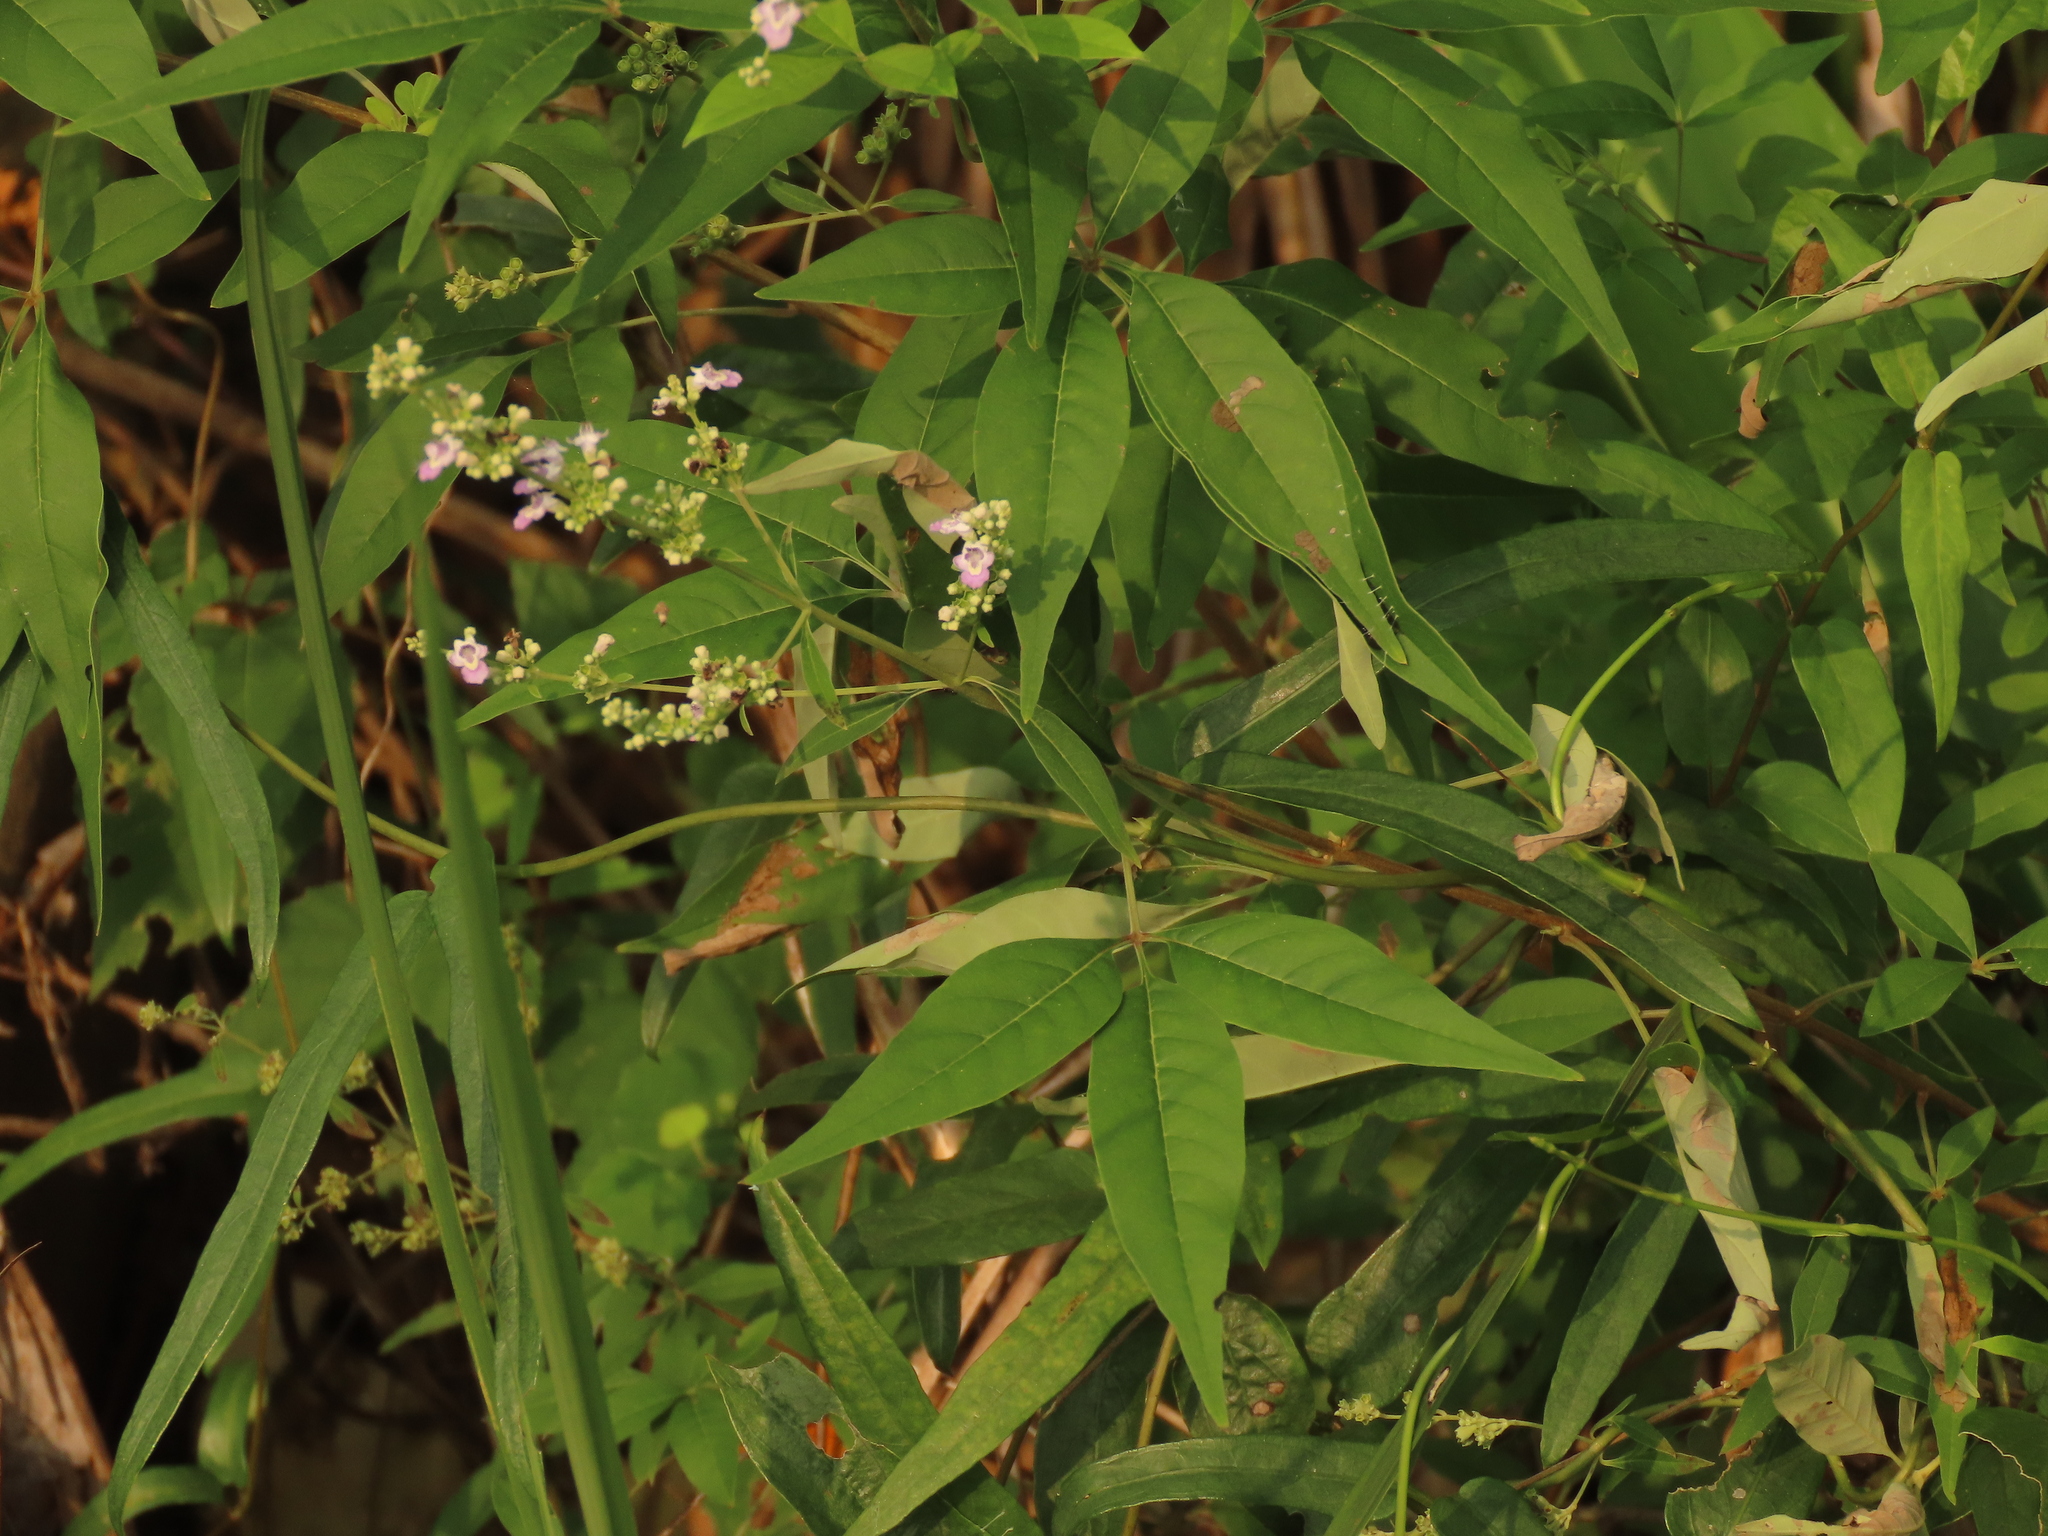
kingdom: Plantae
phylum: Tracheophyta
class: Magnoliopsida
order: Lamiales
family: Lamiaceae
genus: Vitex
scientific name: Vitex negundo
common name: Chinese chastetree
